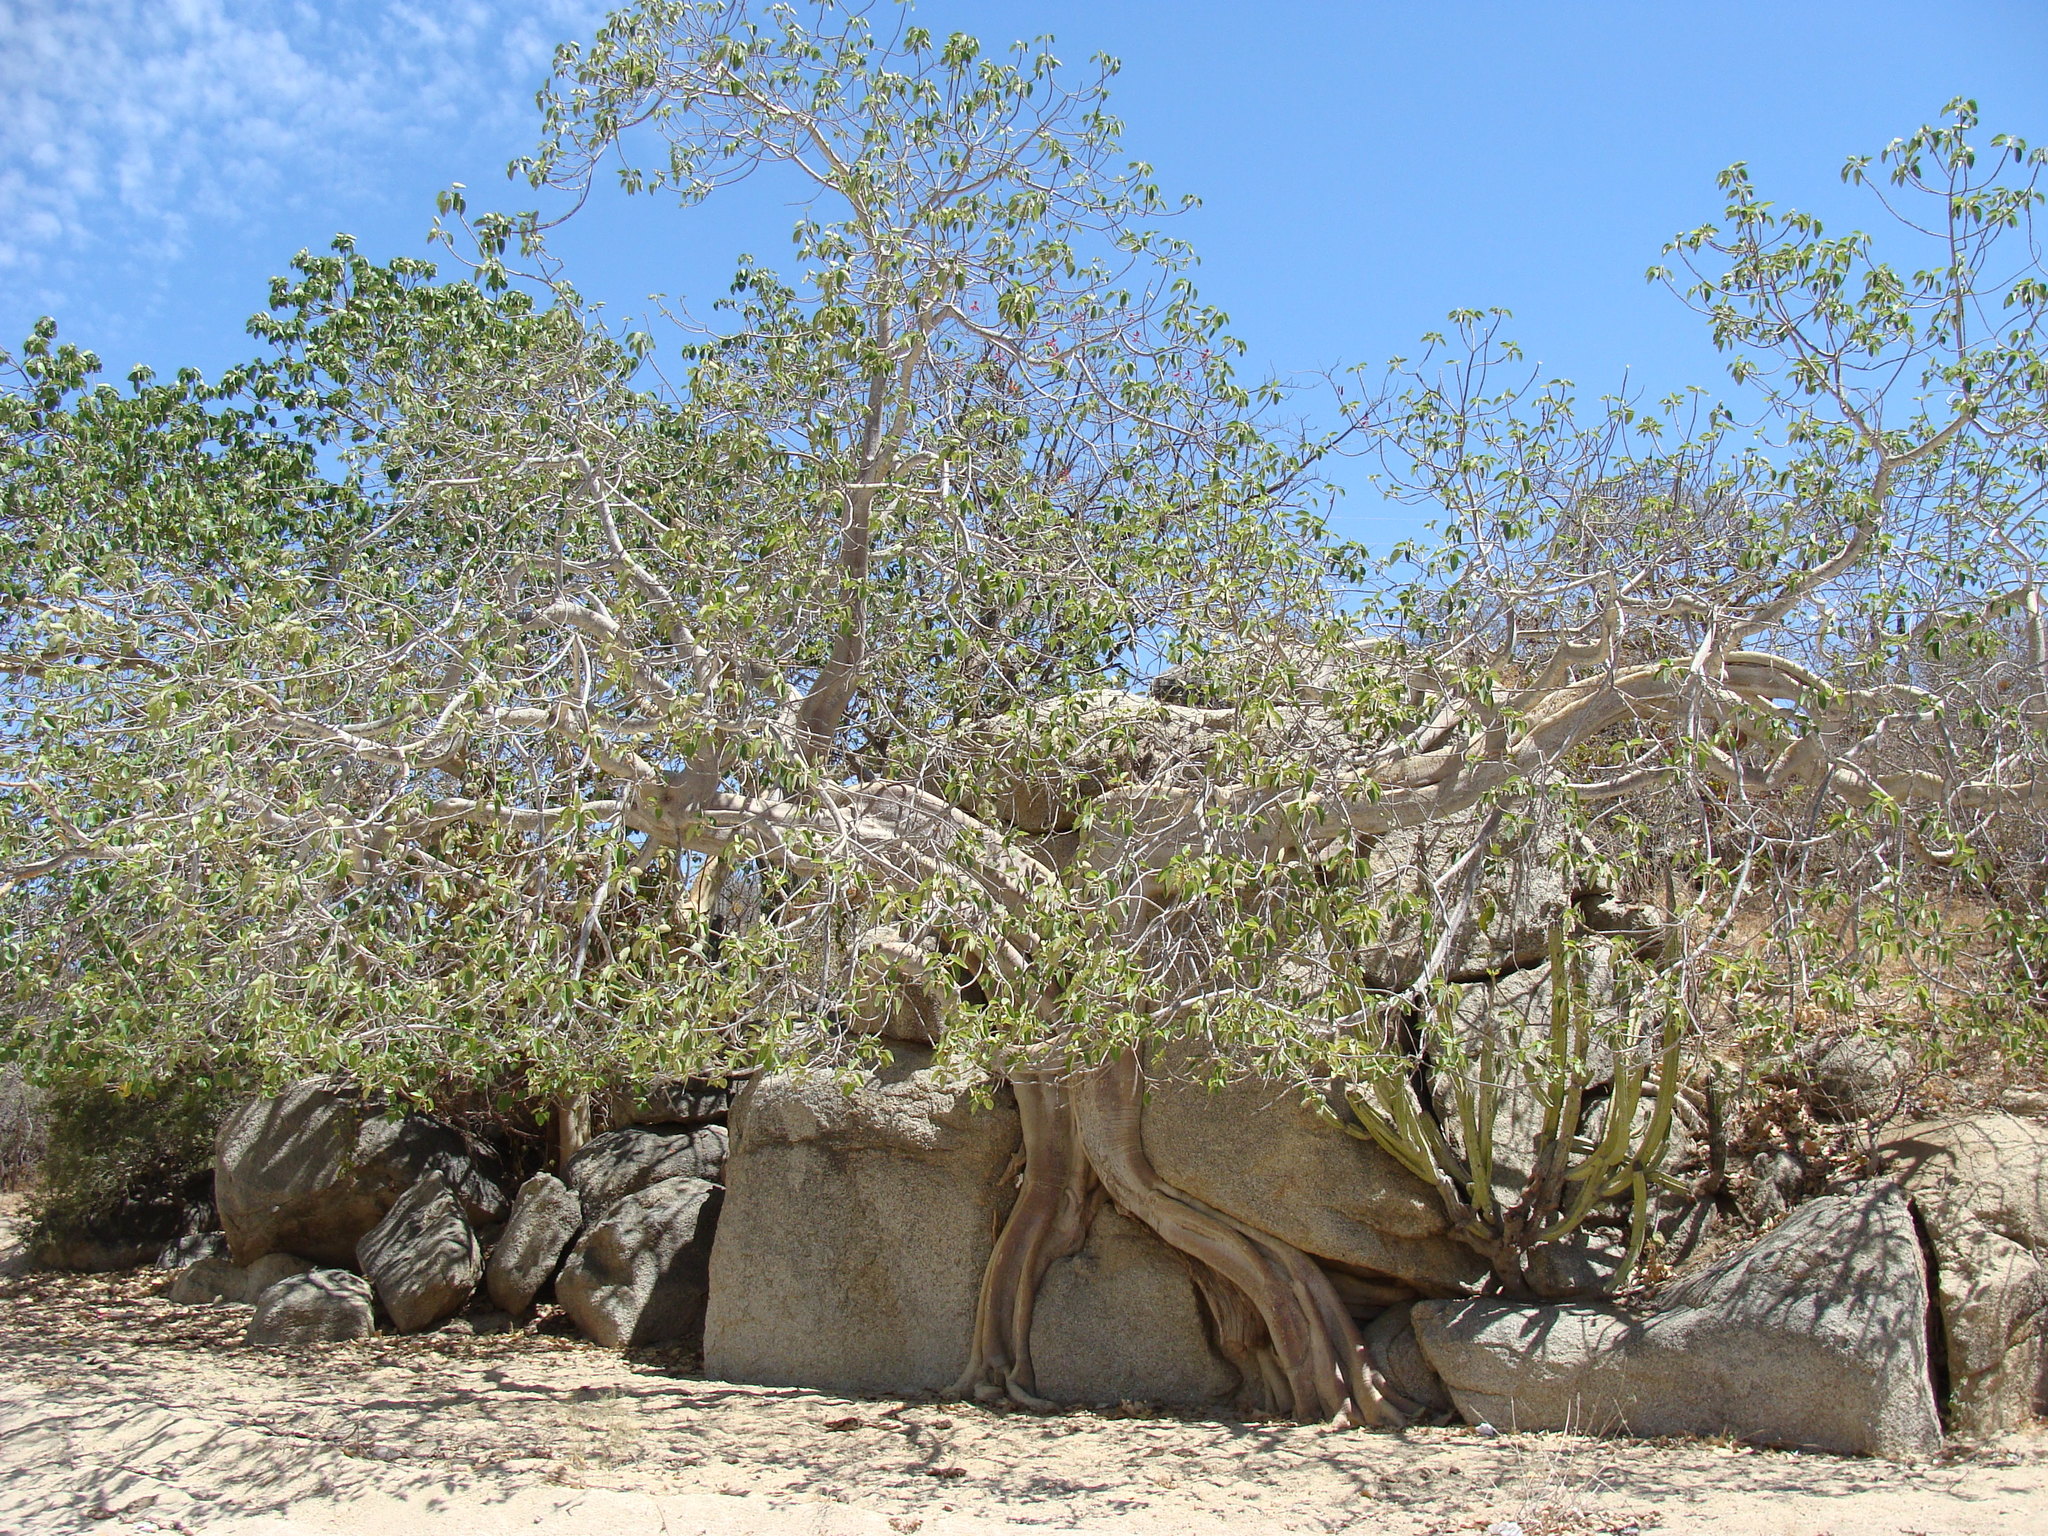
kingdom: Plantae
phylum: Tracheophyta
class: Magnoliopsida
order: Rosales
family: Moraceae
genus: Ficus
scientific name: Ficus petiolaris
